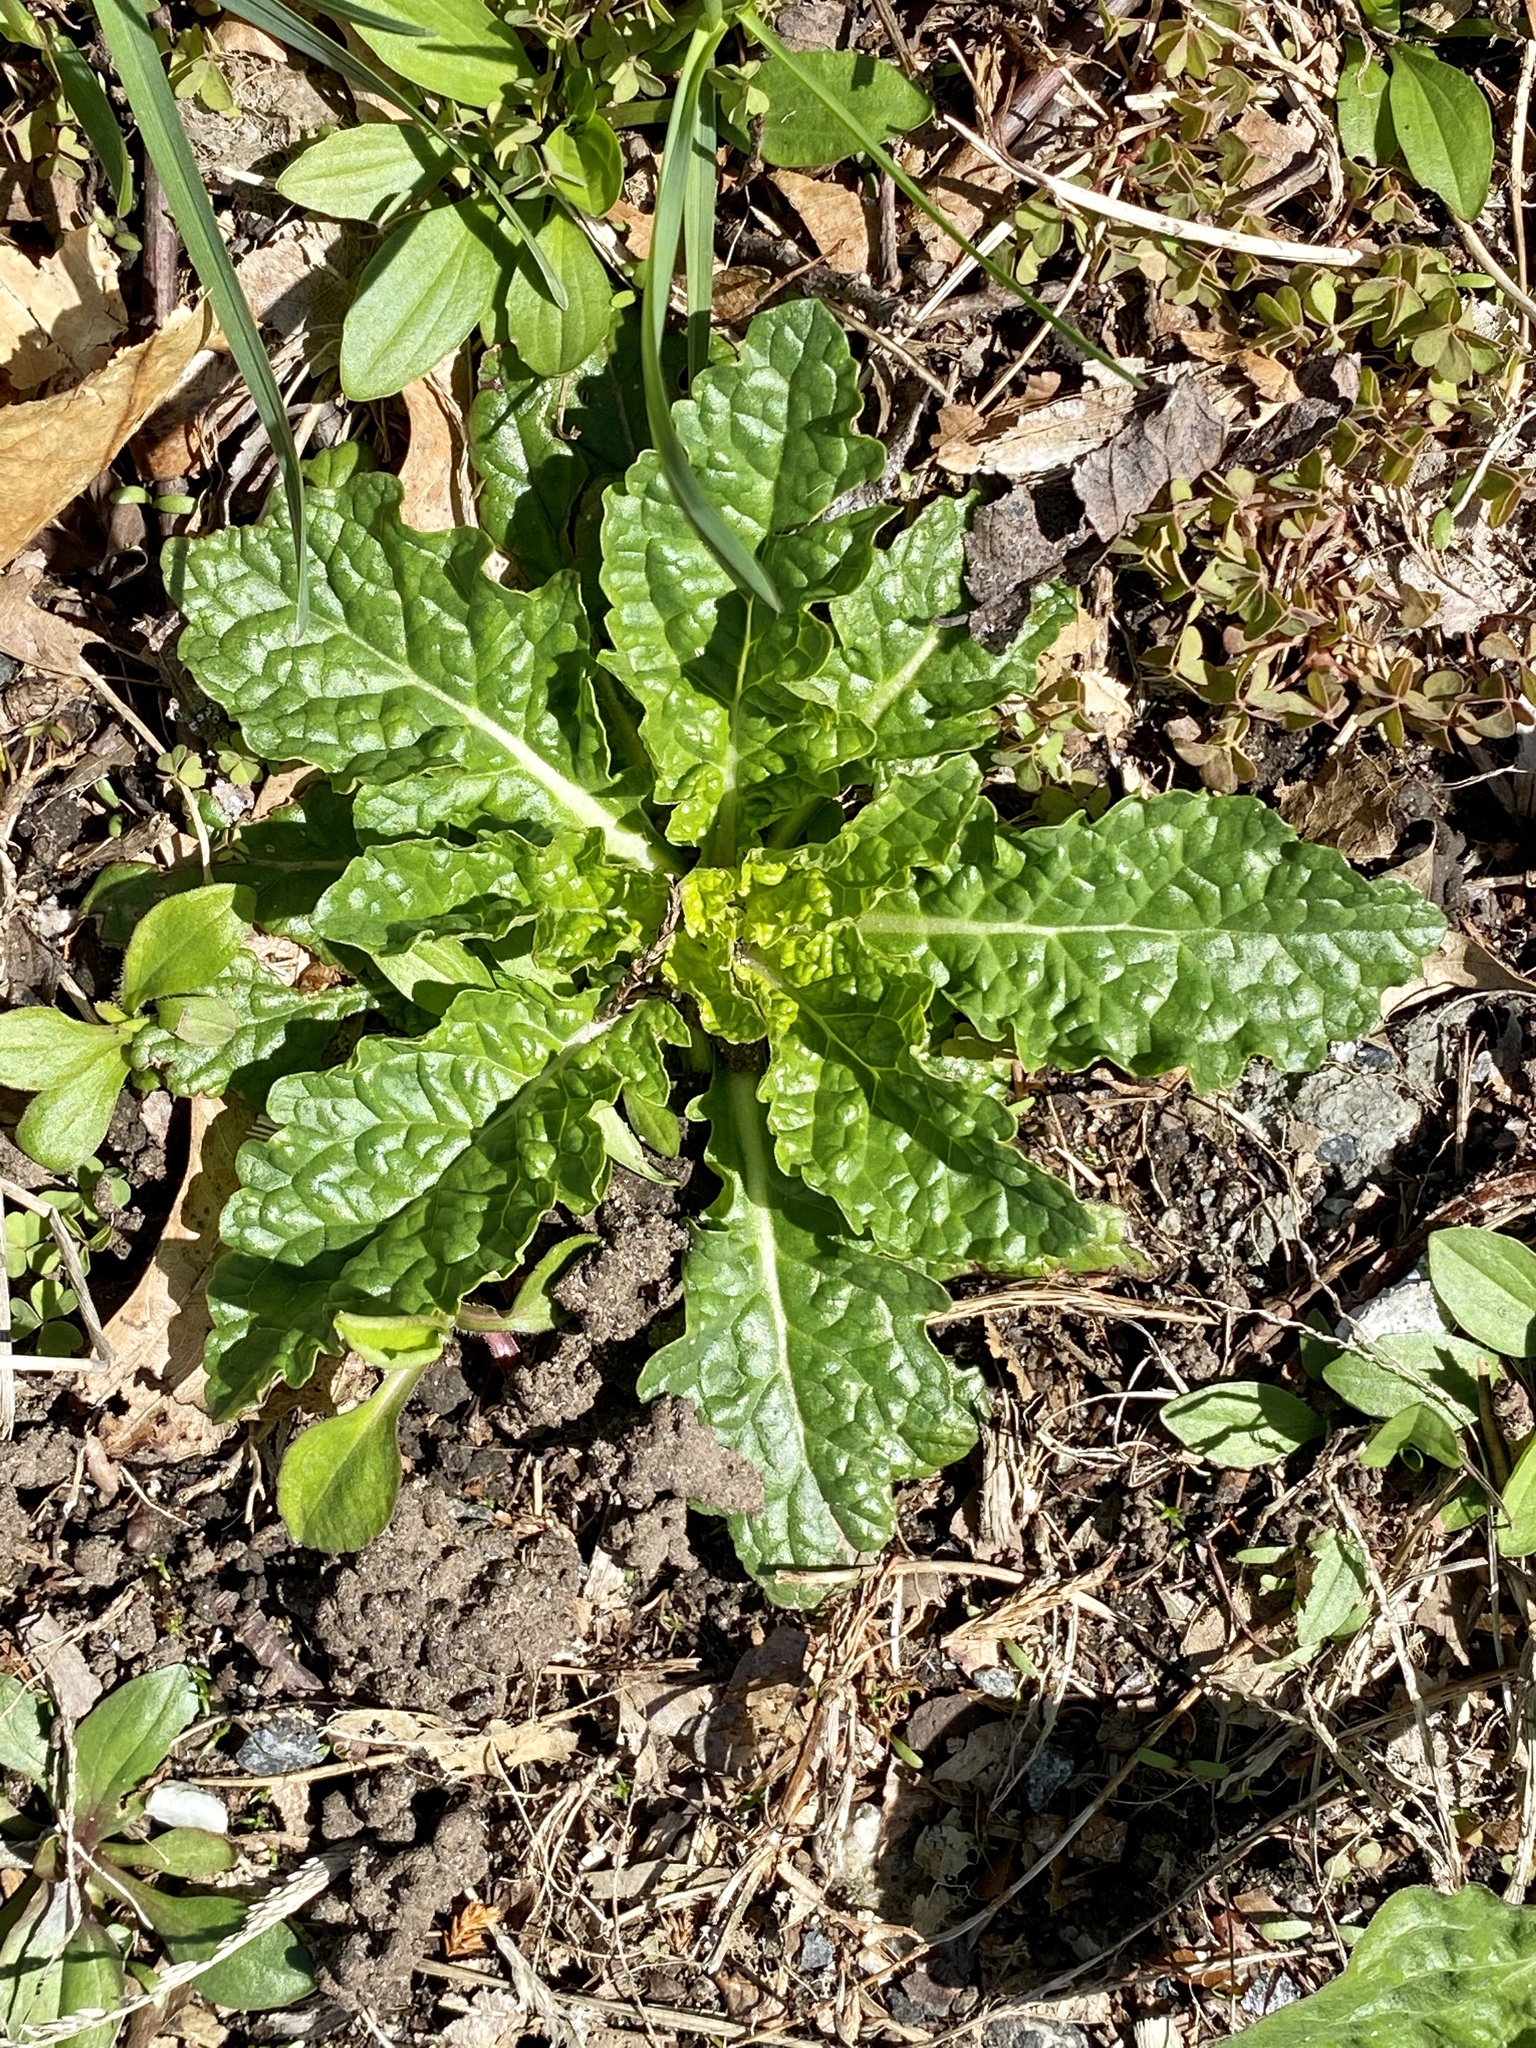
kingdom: Plantae
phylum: Tracheophyta
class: Magnoliopsida
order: Lamiales
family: Scrophulariaceae
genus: Verbascum
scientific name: Verbascum blattaria
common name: Moth mullein
